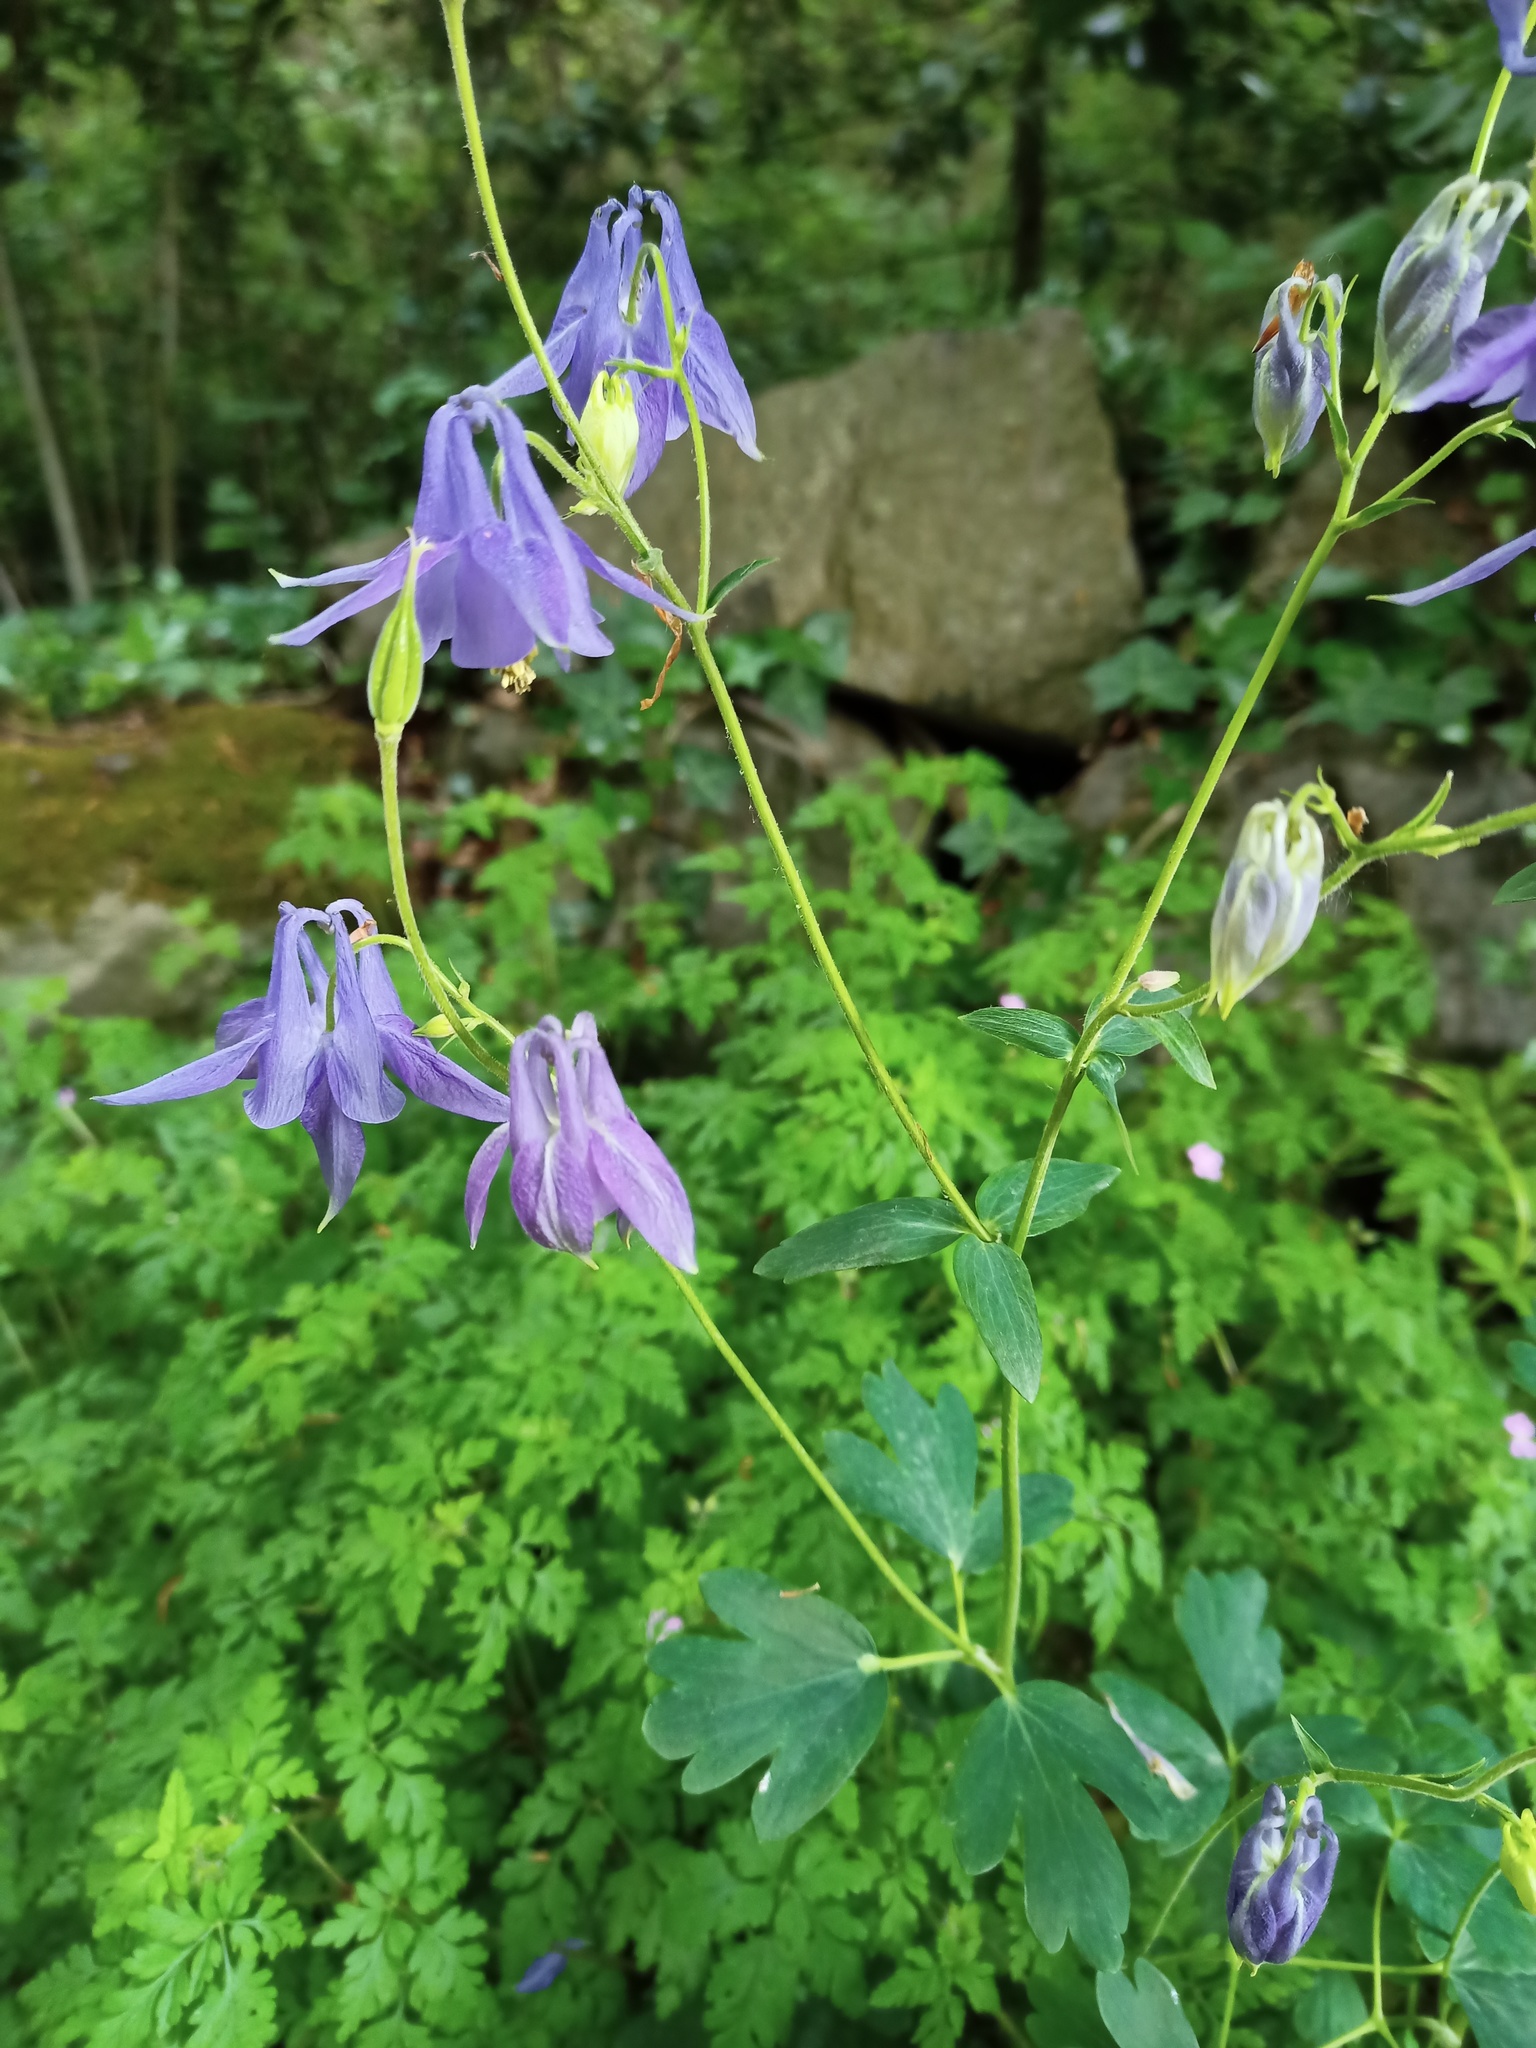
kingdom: Plantae
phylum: Tracheophyta
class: Magnoliopsida
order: Ranunculales
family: Ranunculaceae
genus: Aquilegia
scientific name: Aquilegia vulgaris
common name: Columbine
